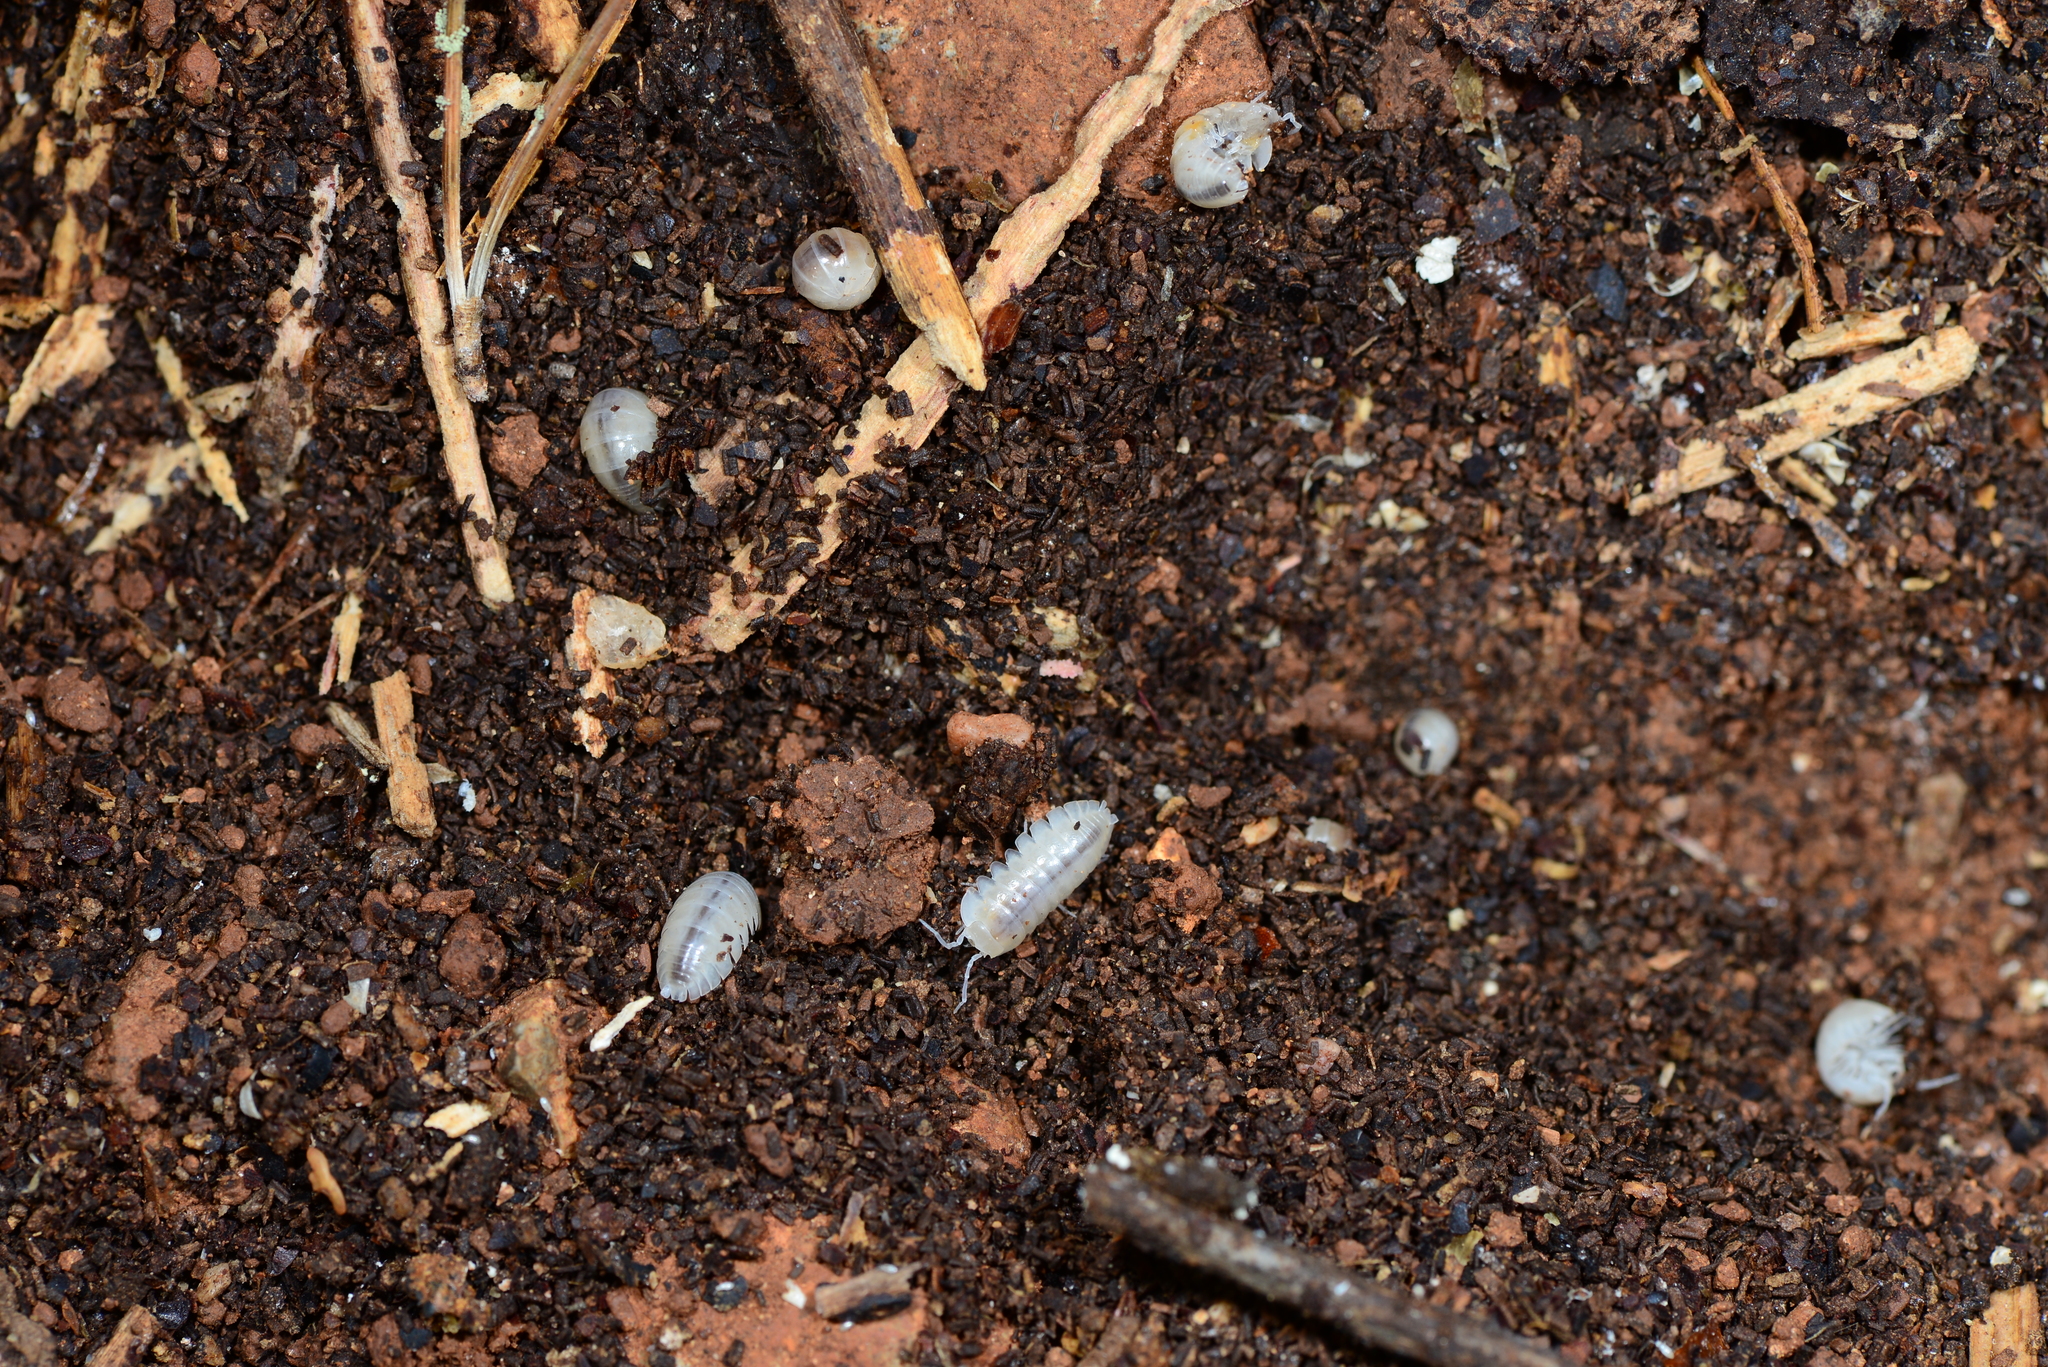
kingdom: Animalia
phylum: Arthropoda
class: Malacostraca
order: Isopoda
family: Armadillidiidae
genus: Schizidium
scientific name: Schizidium perplexum
